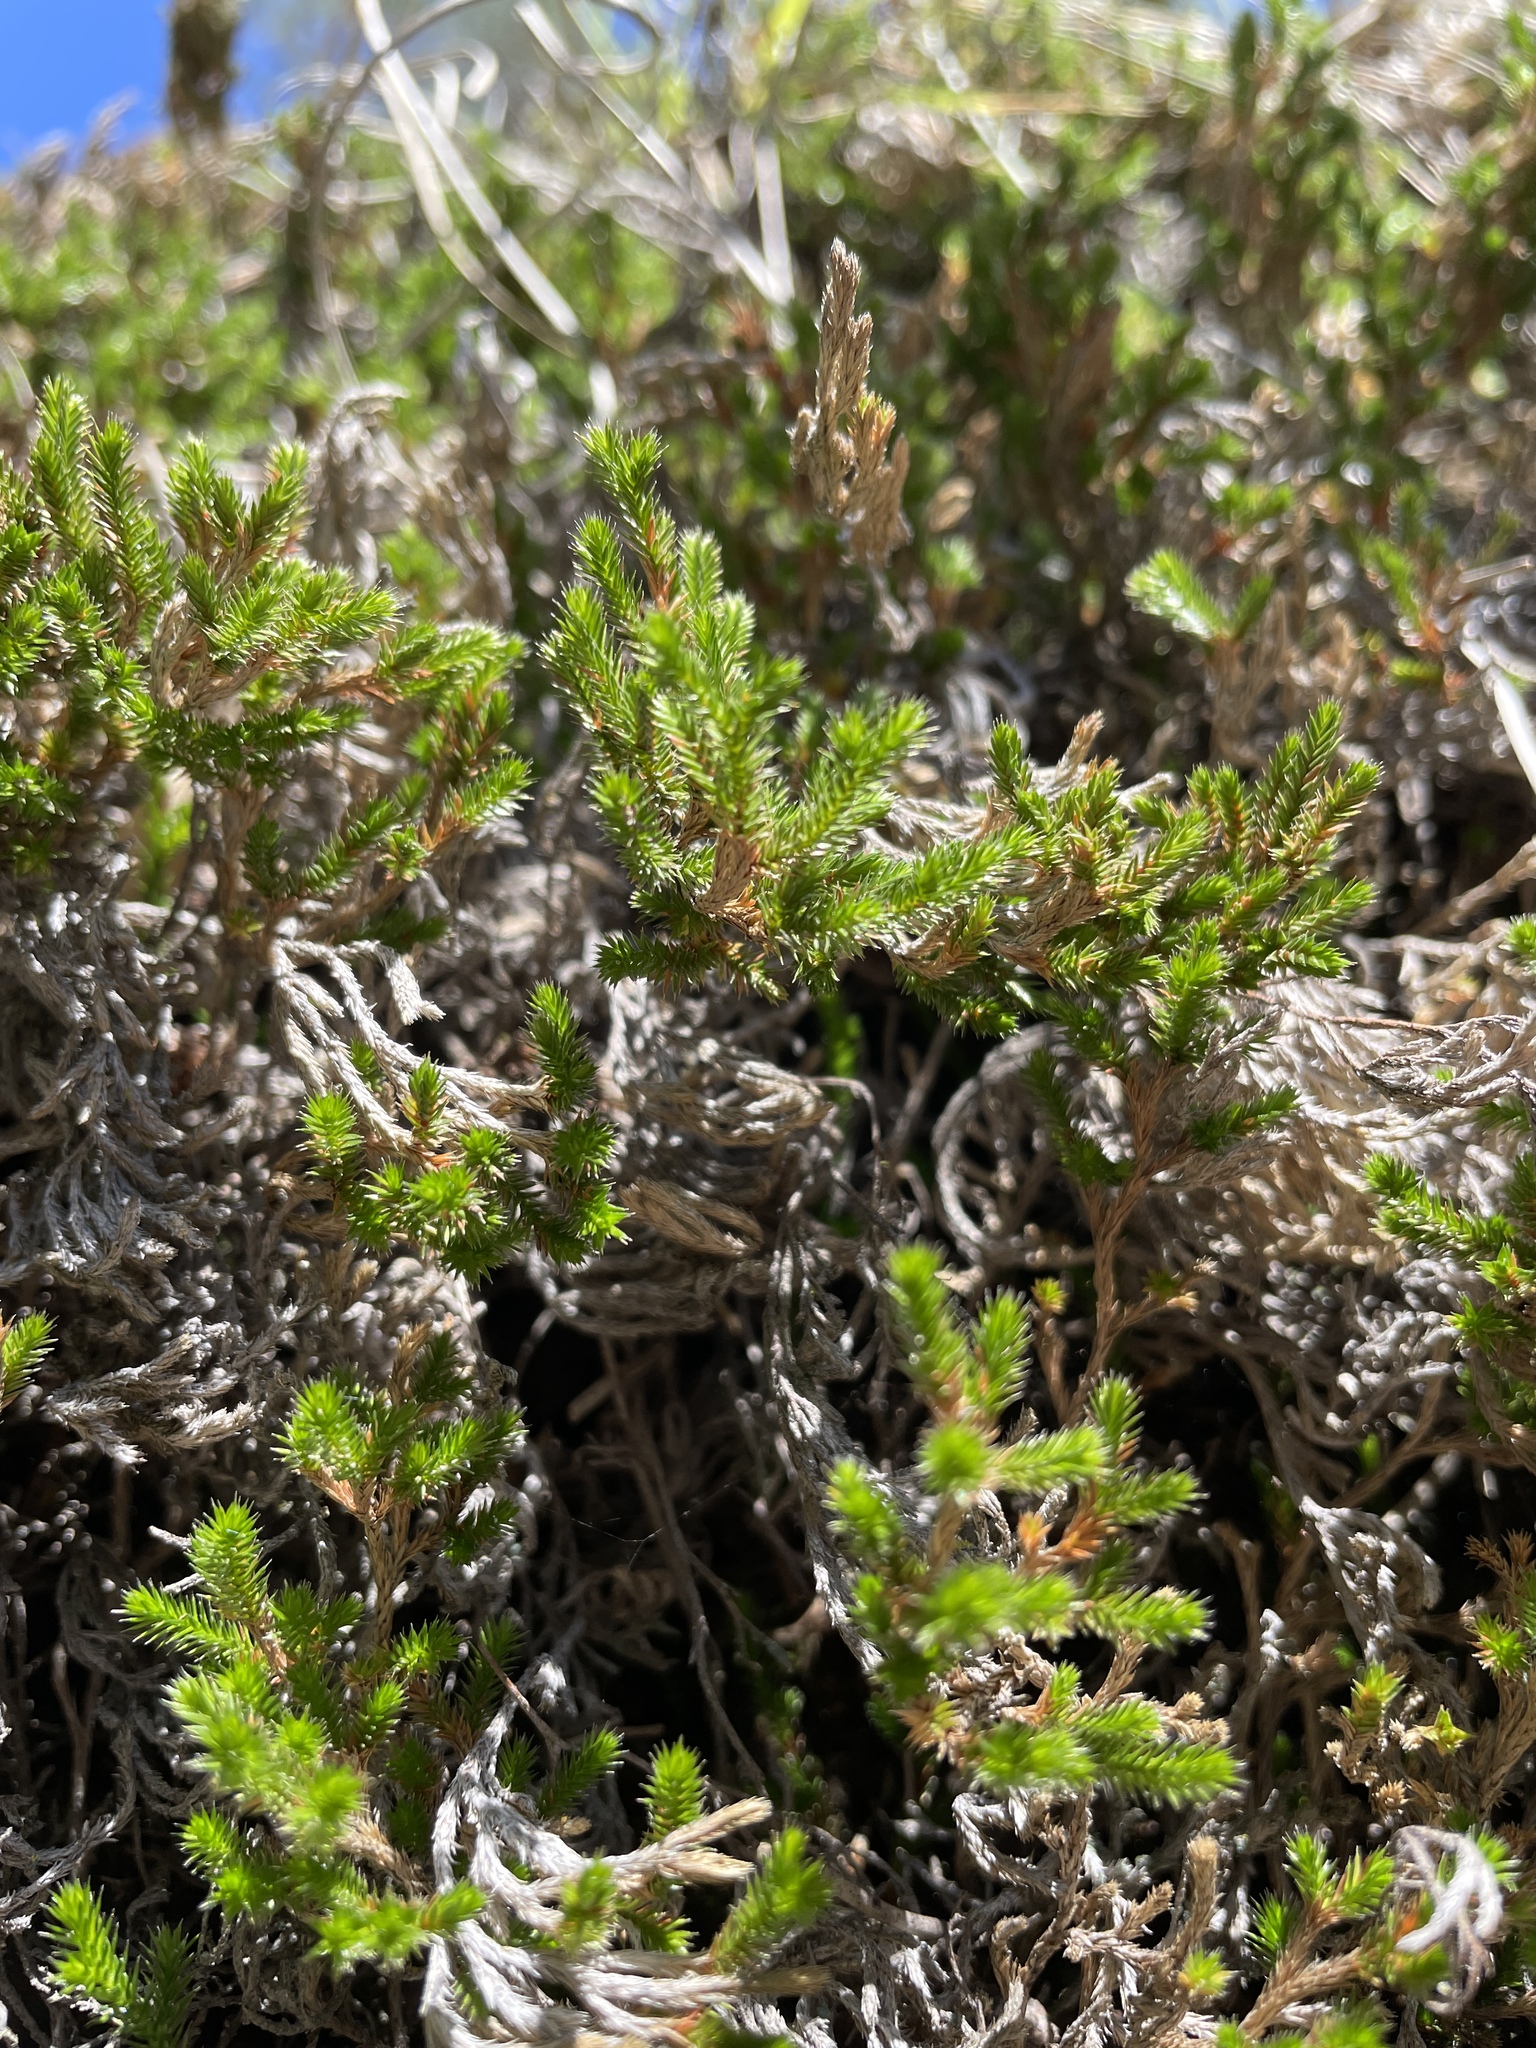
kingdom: Plantae
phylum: Tracheophyta
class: Lycopodiopsida
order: Selaginellales
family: Selaginellaceae
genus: Selaginella
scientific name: Selaginella bigelovii
